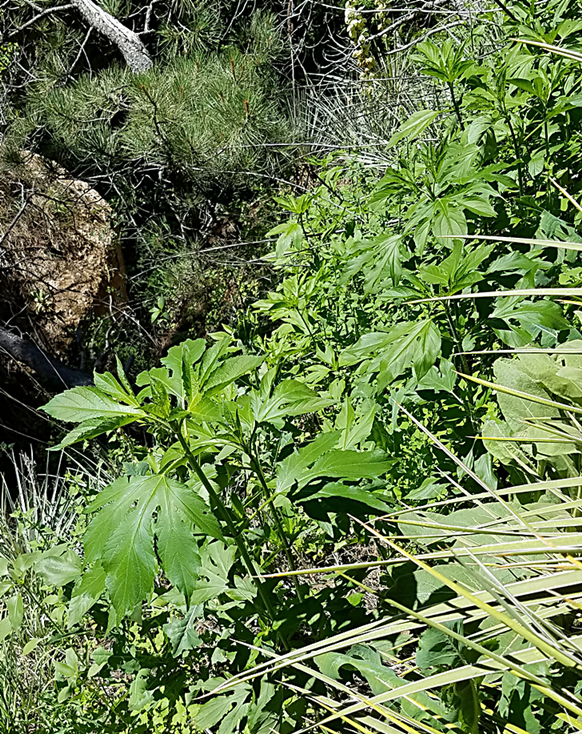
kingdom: Plantae
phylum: Tracheophyta
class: Magnoliopsida
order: Asterales
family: Asteraceae
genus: Ambrosia
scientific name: Ambrosia trifida
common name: Giant ragweed
